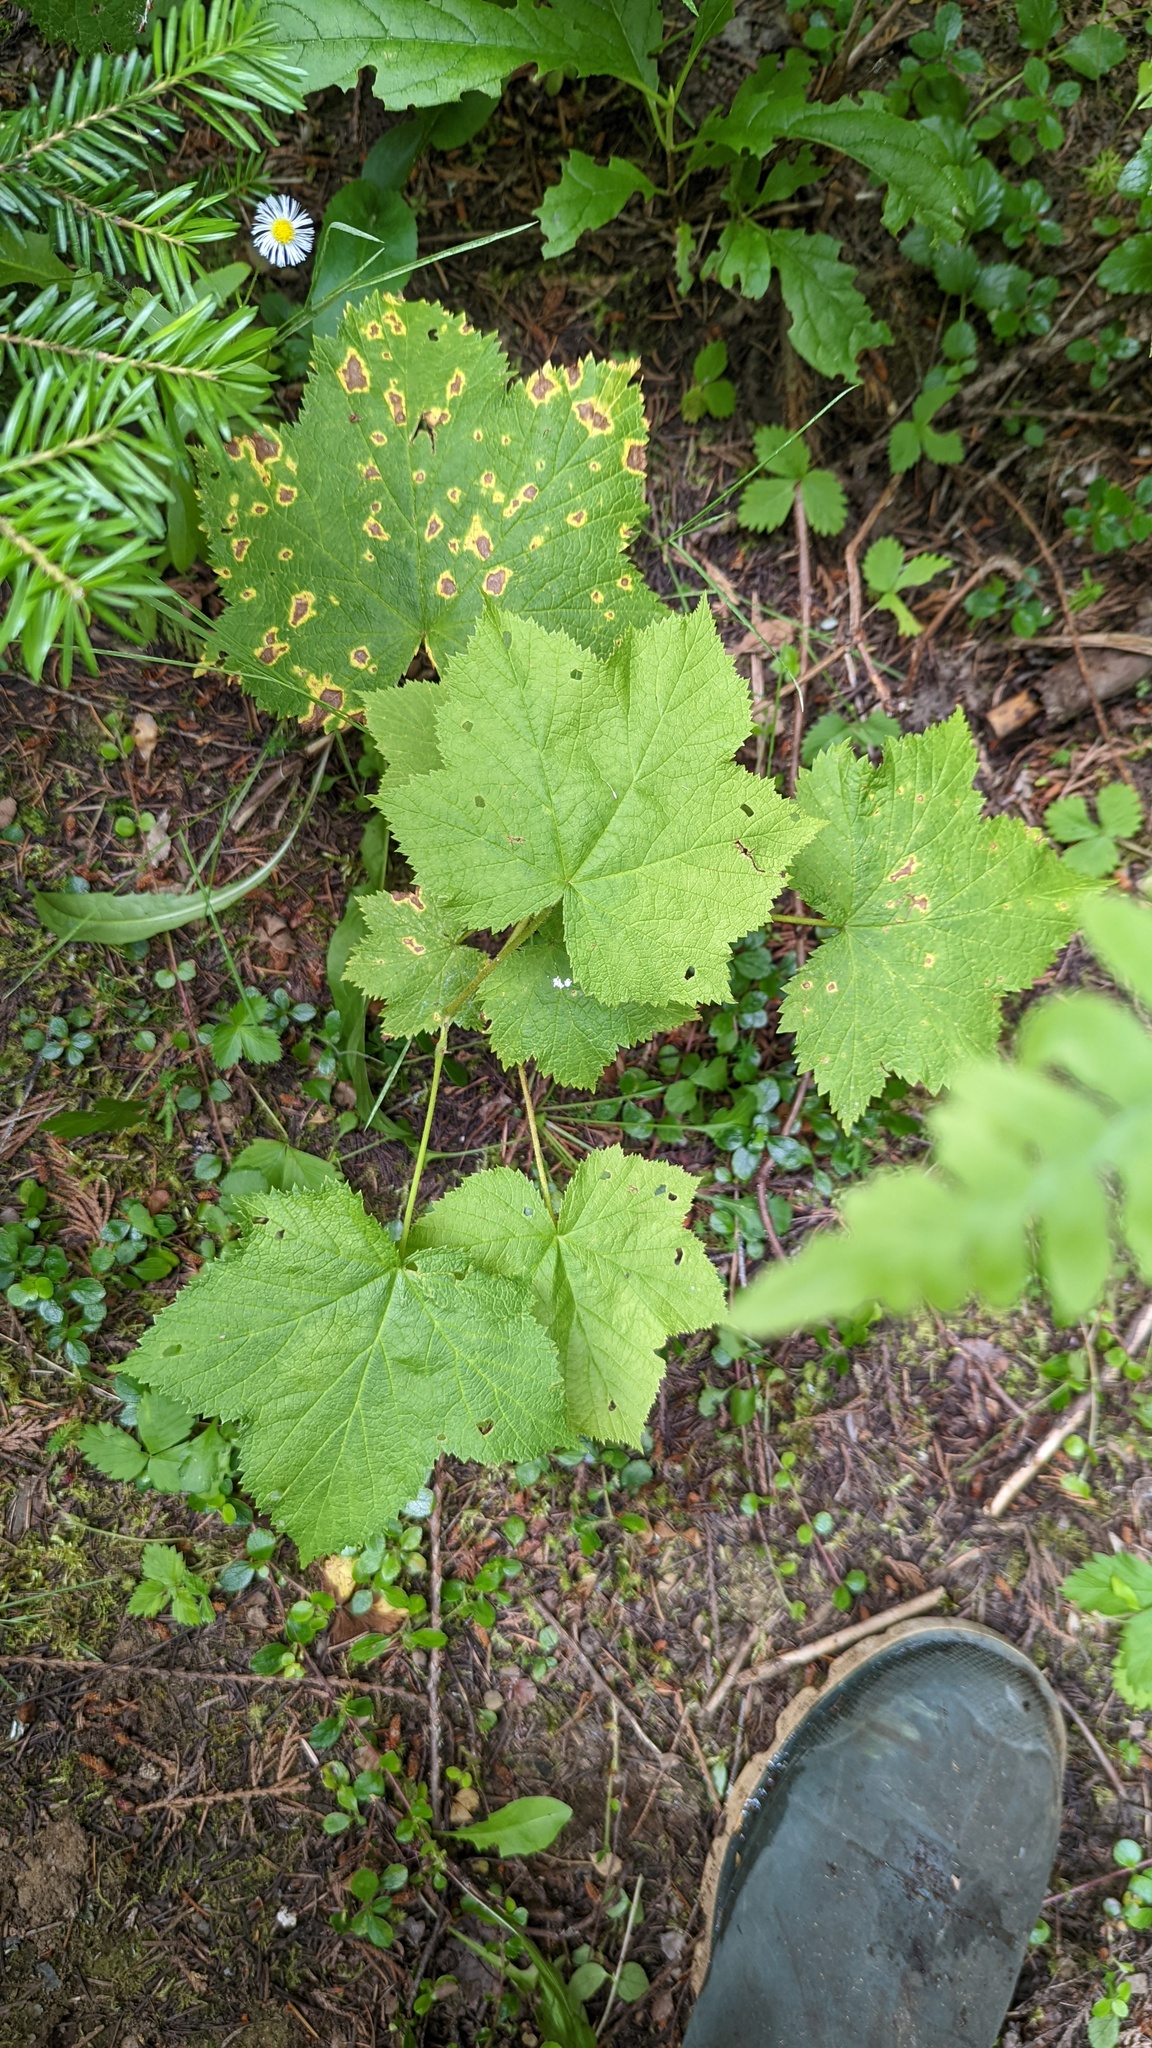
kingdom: Plantae
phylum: Tracheophyta
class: Magnoliopsida
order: Rosales
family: Rosaceae
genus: Rubus
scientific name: Rubus parviflorus
